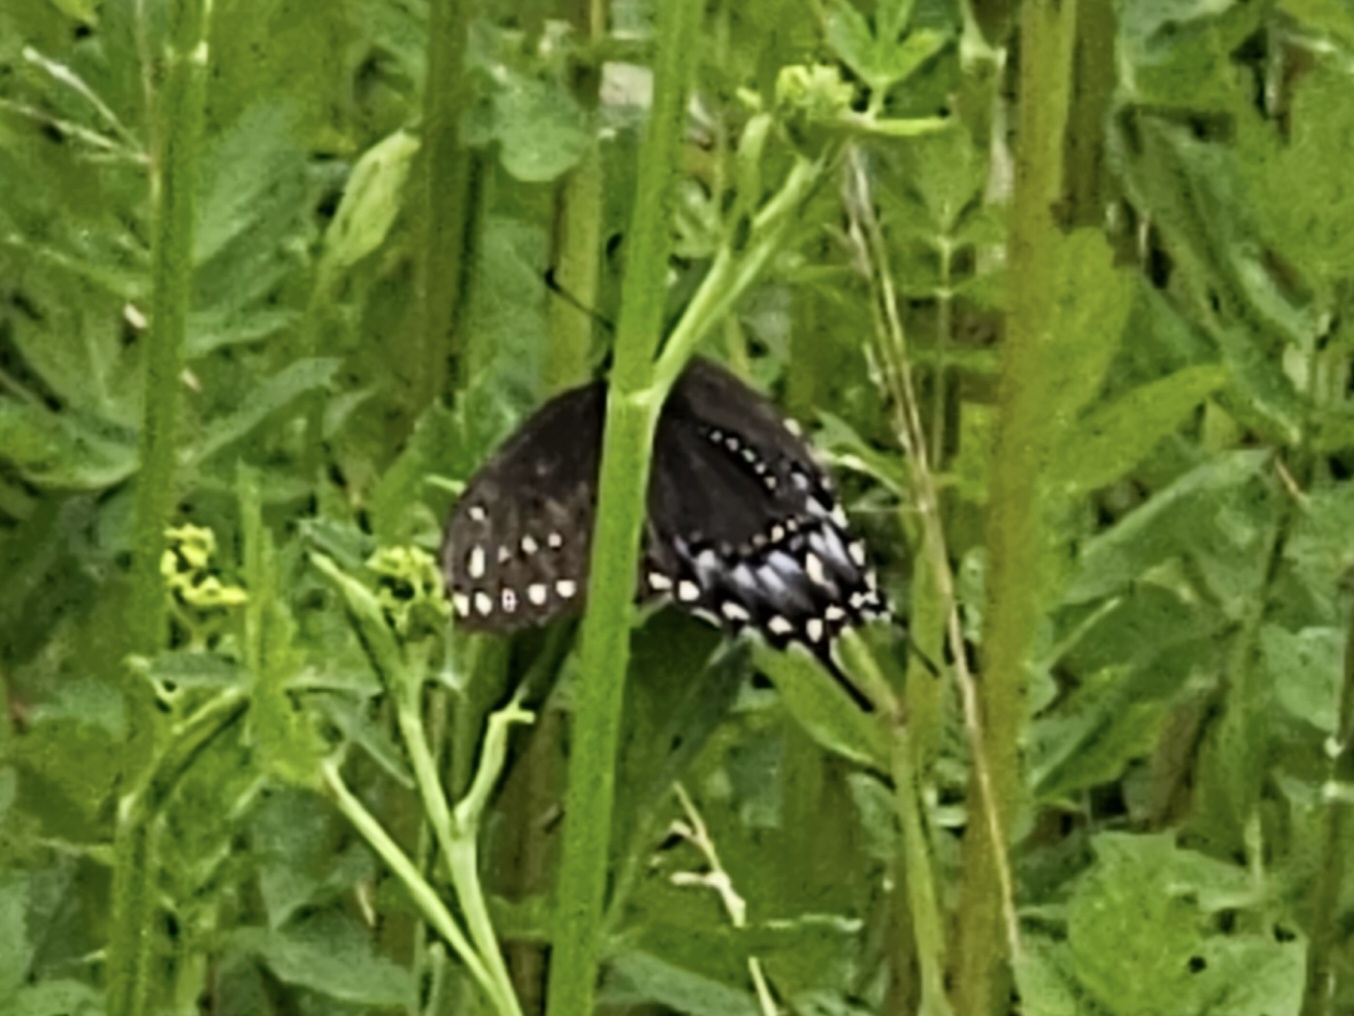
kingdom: Animalia
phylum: Arthropoda
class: Insecta
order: Lepidoptera
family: Papilionidae
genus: Papilio
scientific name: Papilio polyxenes
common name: Black swallowtail
